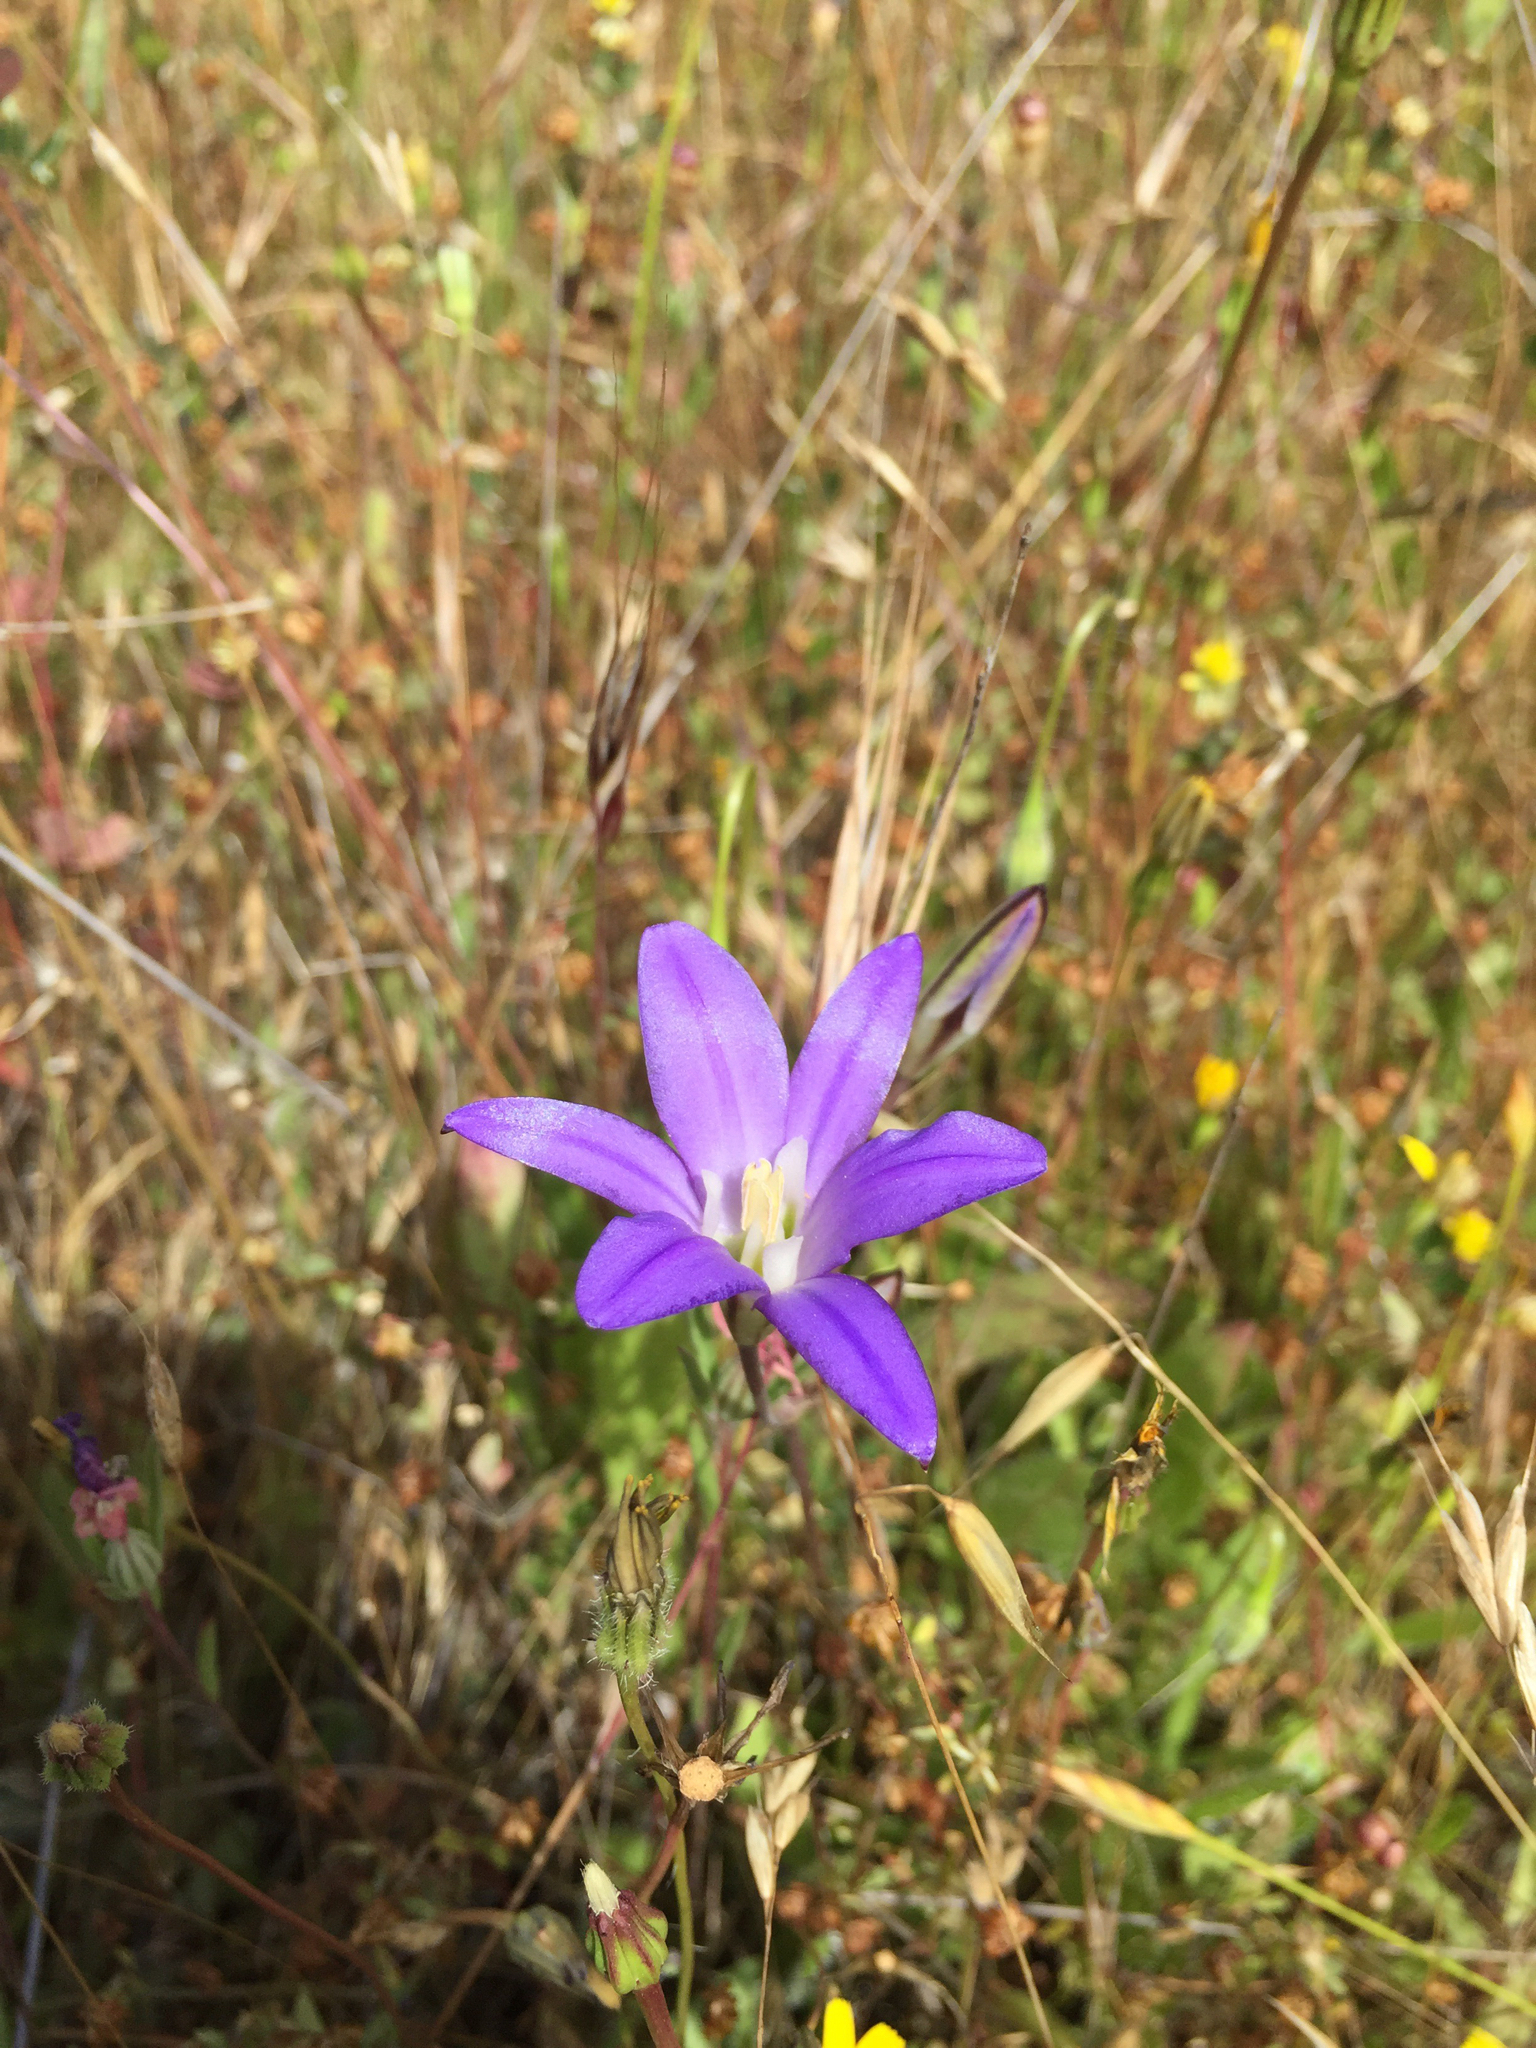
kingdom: Plantae
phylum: Tracheophyta
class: Liliopsida
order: Asparagales
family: Asparagaceae
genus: Brodiaea
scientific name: Brodiaea elegans
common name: Elegant cluster-lily
